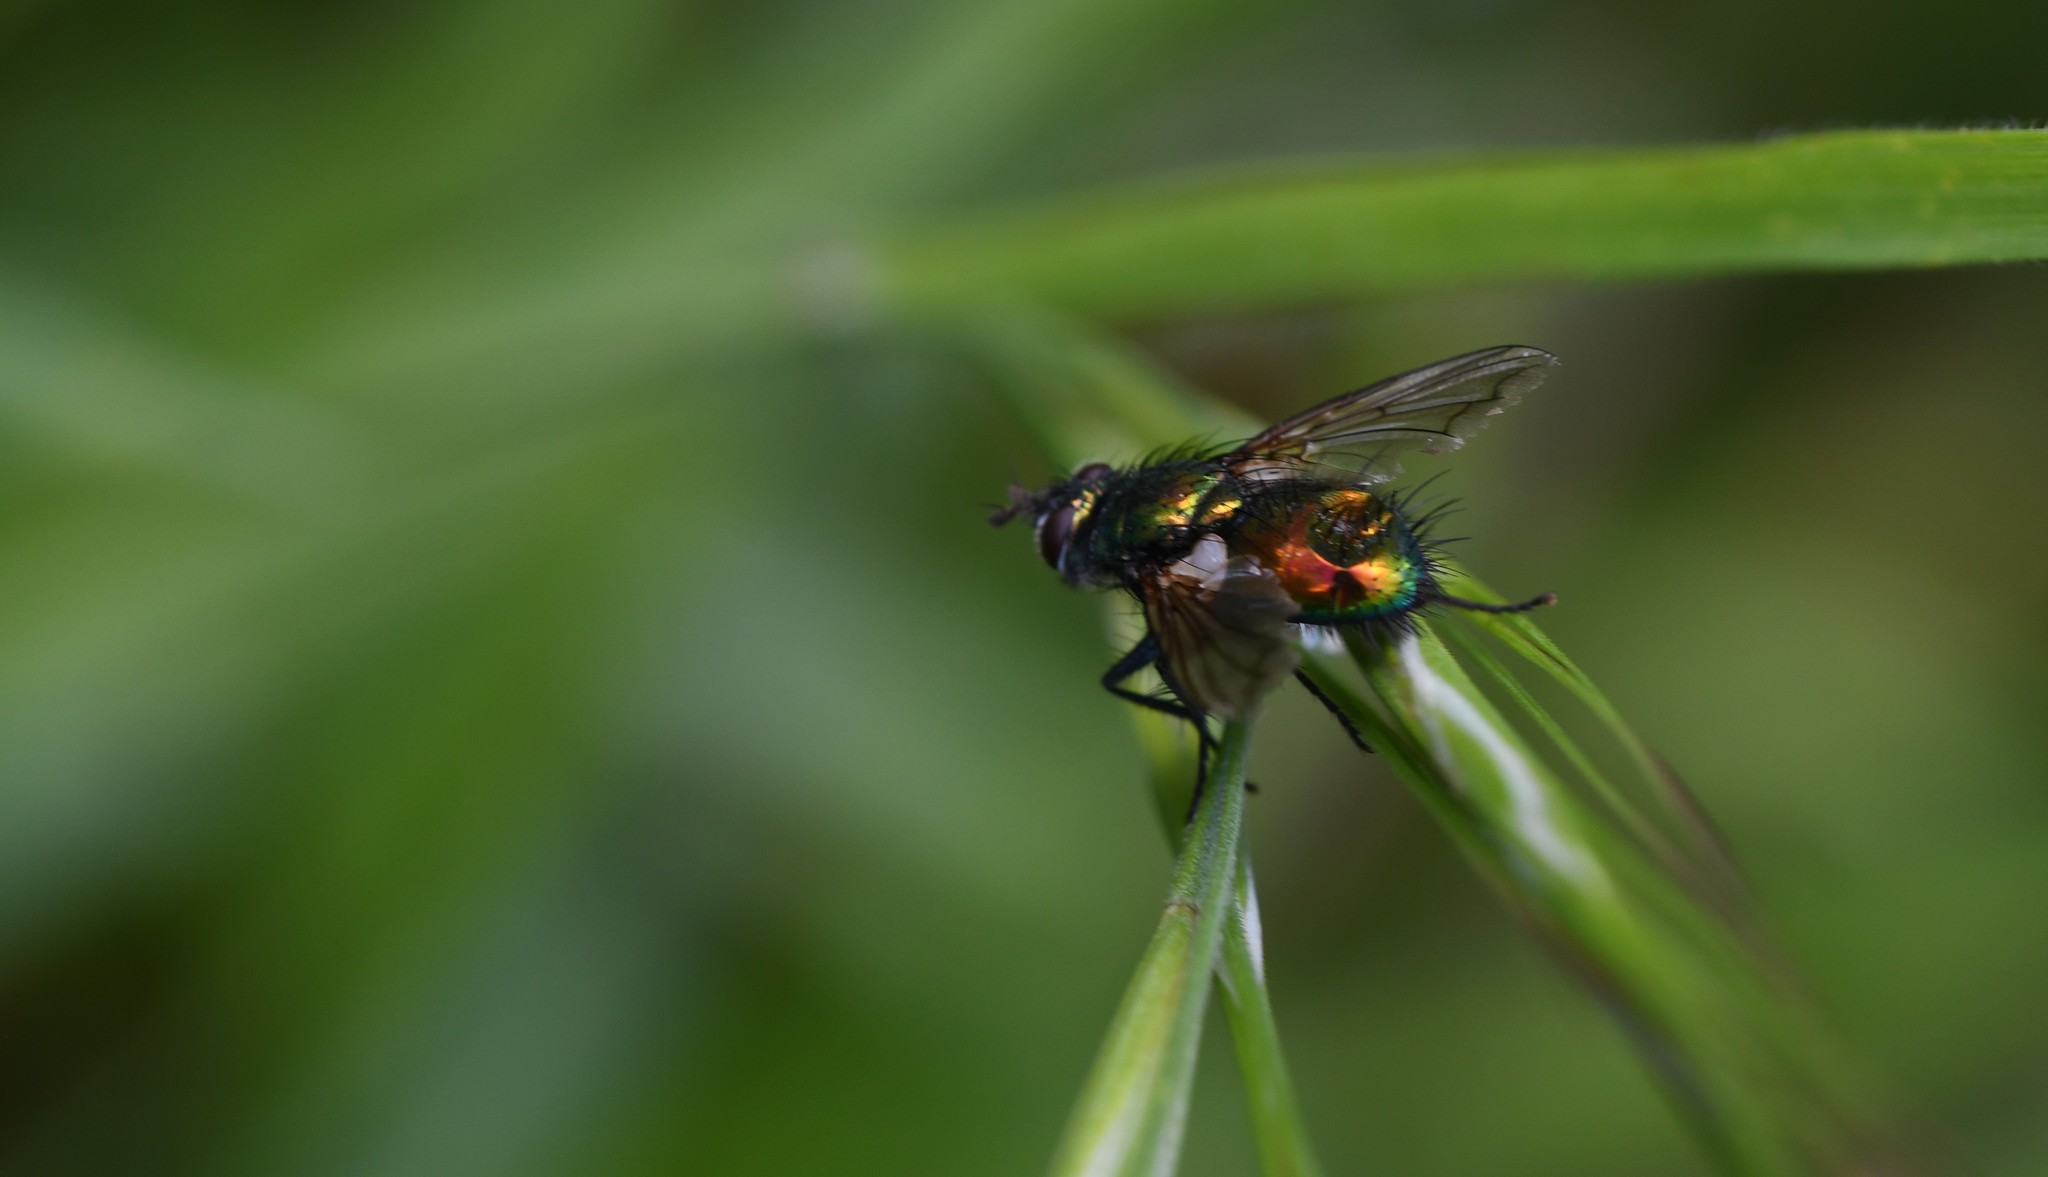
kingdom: Animalia
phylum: Arthropoda
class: Insecta
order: Diptera
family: Tachinidae
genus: Gymnocheta
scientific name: Gymnocheta viridis
